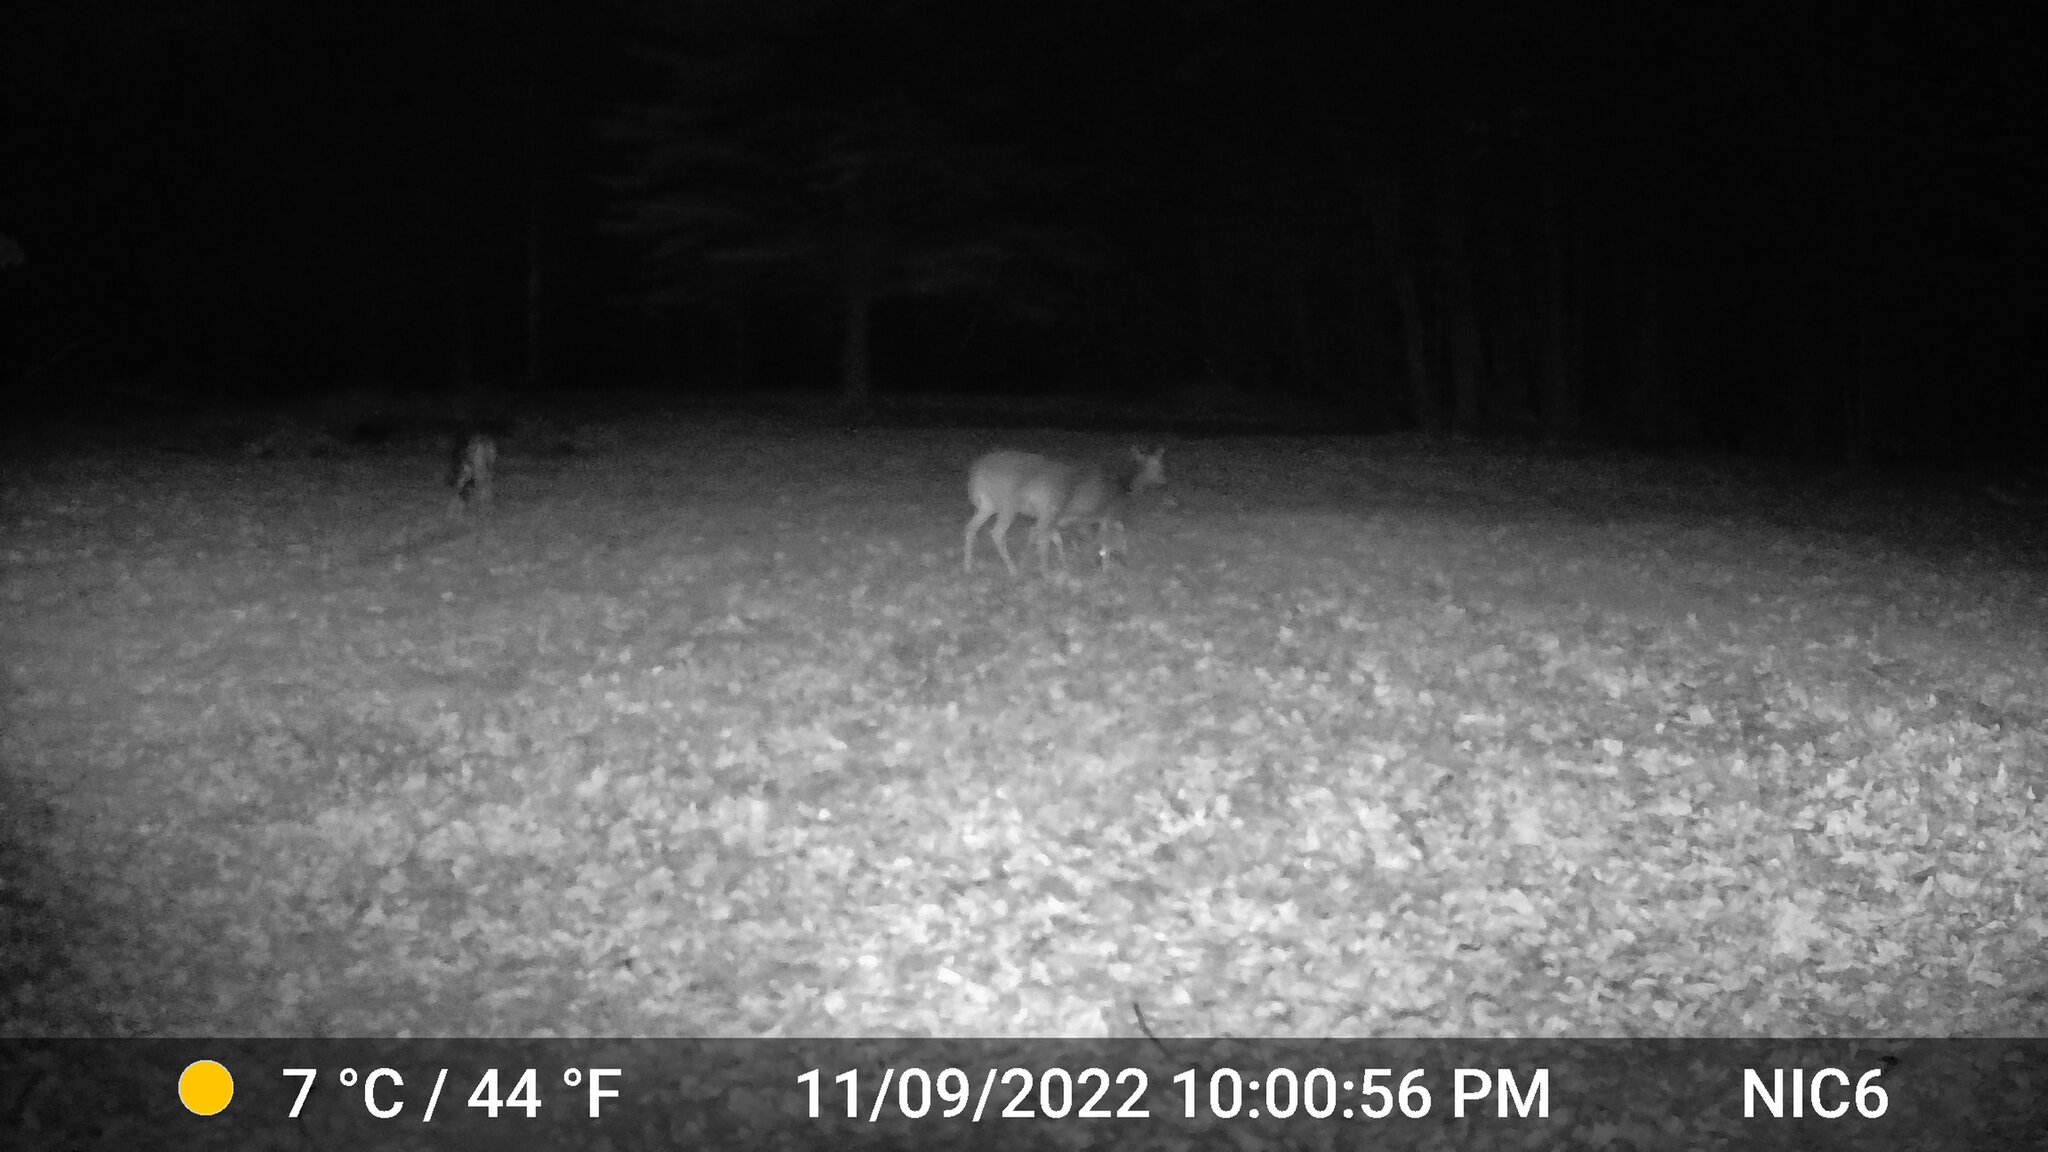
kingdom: Animalia
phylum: Chordata
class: Mammalia
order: Artiodactyla
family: Cervidae
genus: Odocoileus
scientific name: Odocoileus virginianus
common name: White-tailed deer
